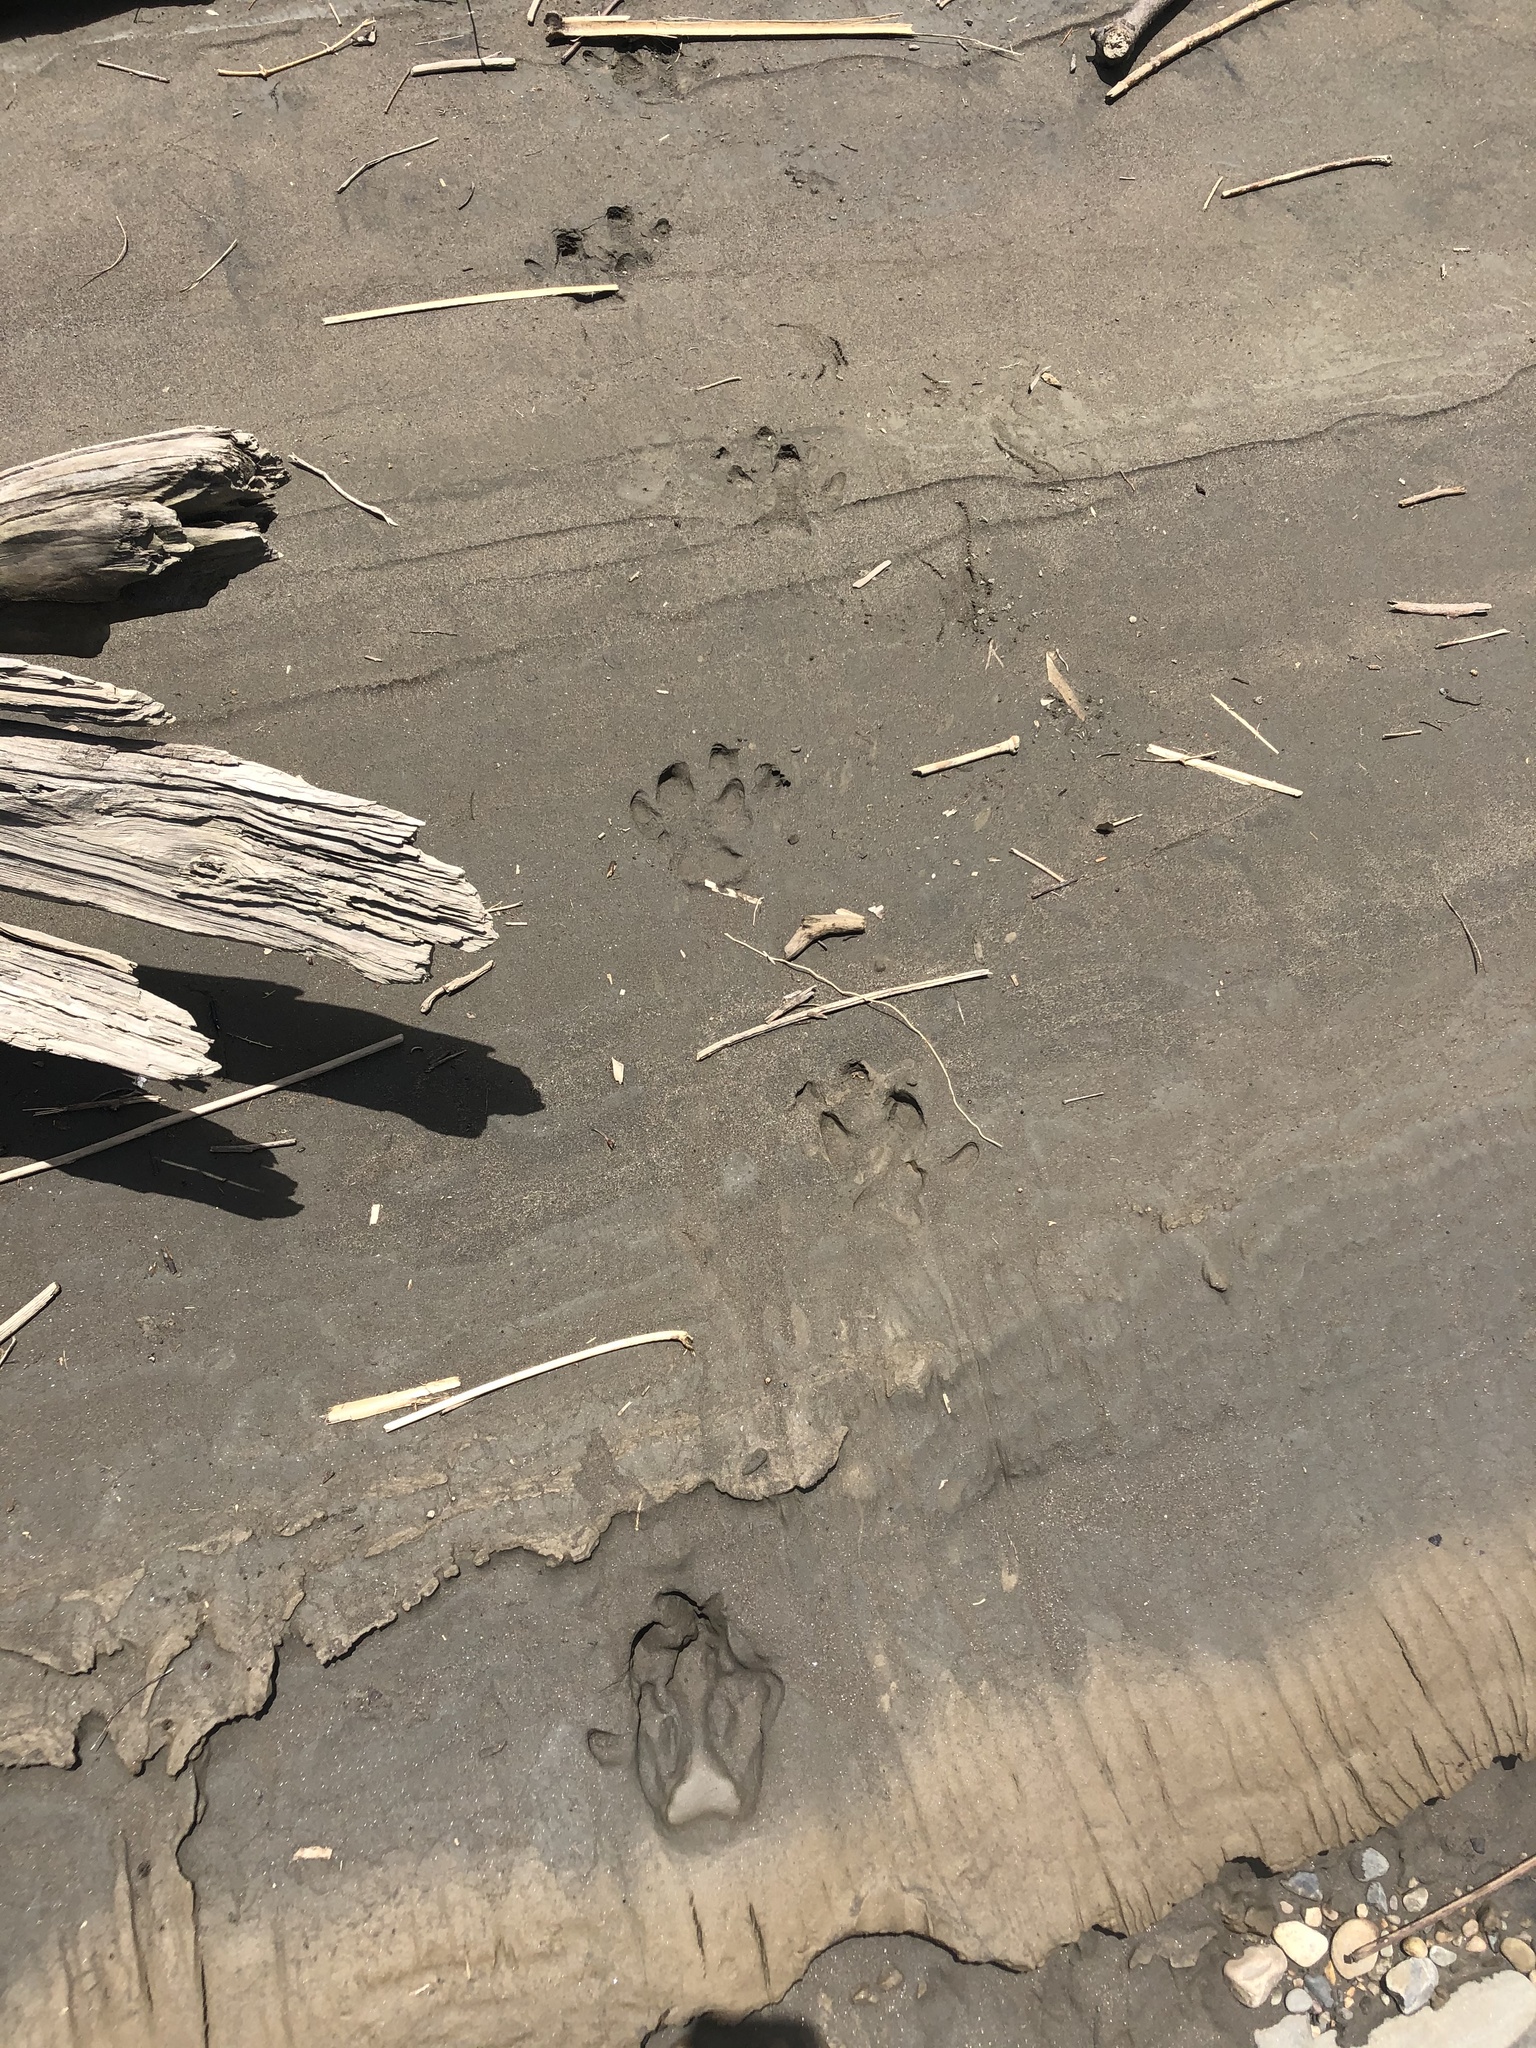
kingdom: Animalia
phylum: Chordata
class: Mammalia
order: Rodentia
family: Caviidae
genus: Hydrochoerus
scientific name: Hydrochoerus hydrochaeris
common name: Capybara
